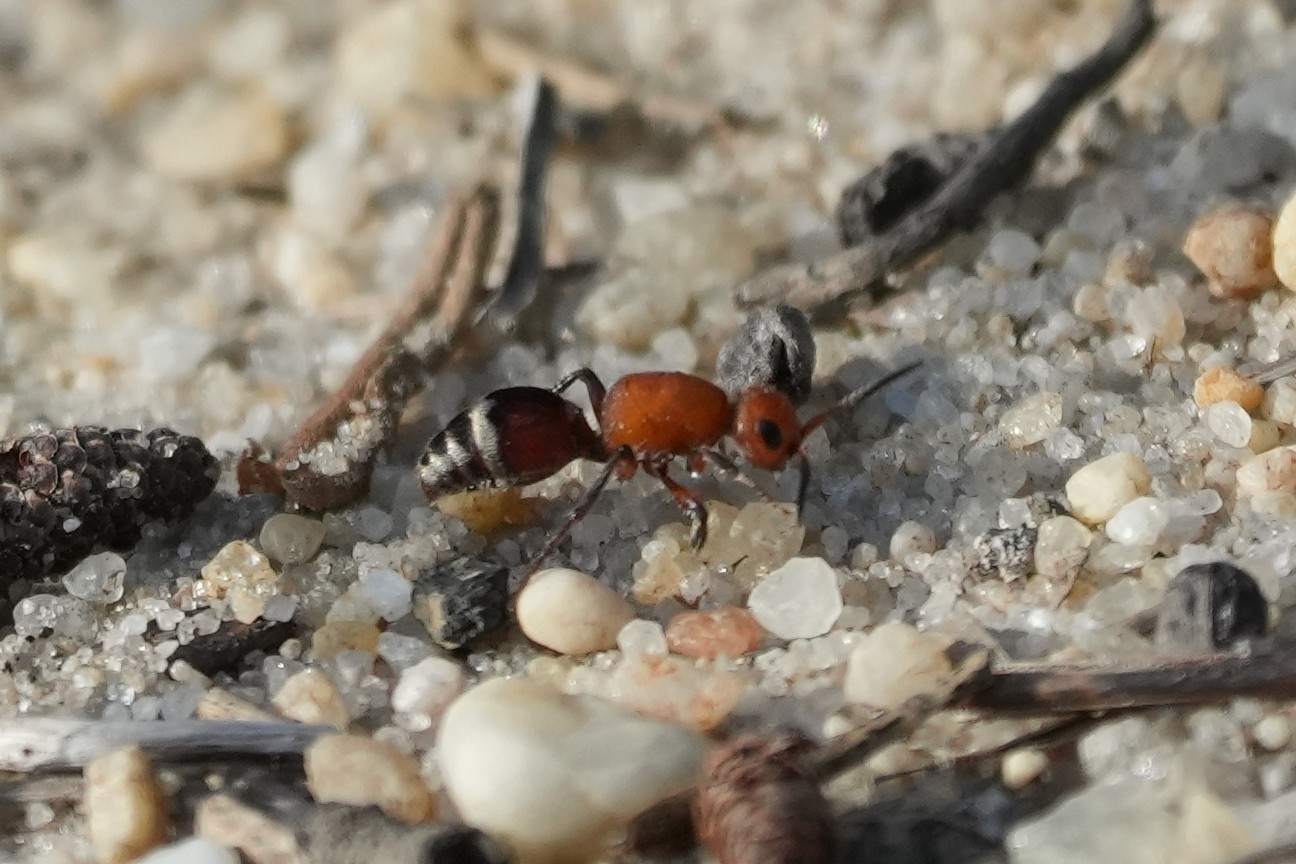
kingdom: Animalia
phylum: Arthropoda
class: Insecta
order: Hymenoptera
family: Mutillidae
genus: Timulla
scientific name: Timulla
